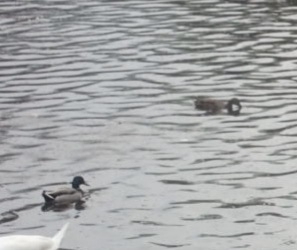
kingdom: Animalia
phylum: Chordata
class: Aves
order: Anseriformes
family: Anatidae
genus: Anas
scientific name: Anas platyrhynchos
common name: Mallard
